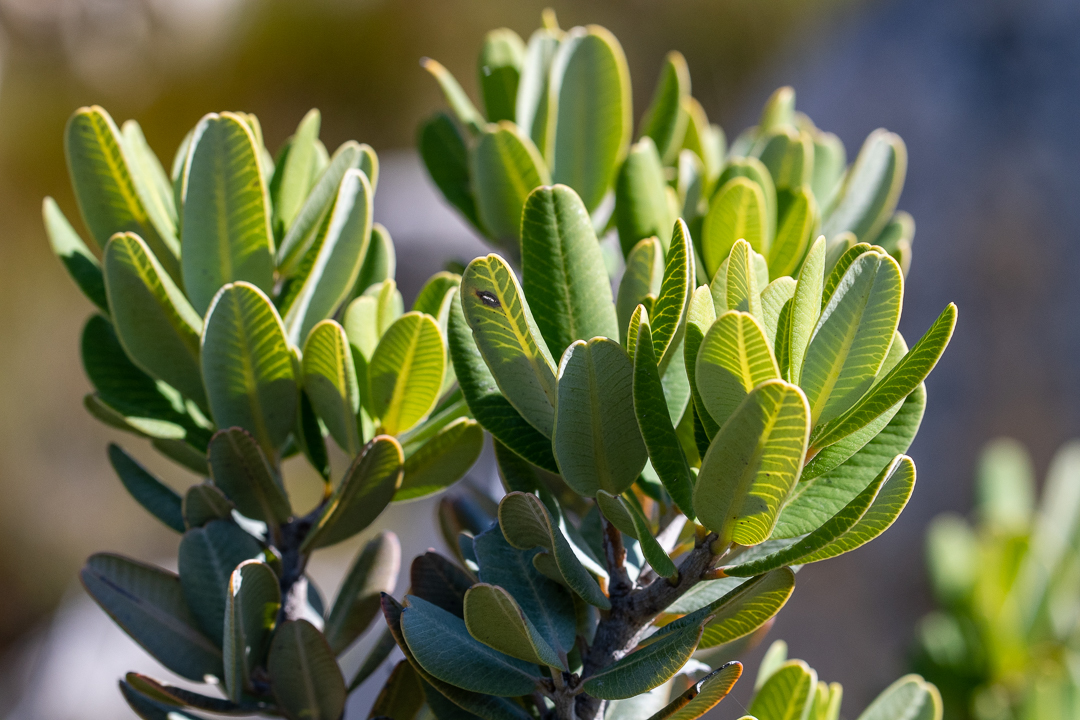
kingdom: Plantae
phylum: Tracheophyta
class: Magnoliopsida
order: Sapindales
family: Anacardiaceae
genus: Heeria
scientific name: Heeria argentea
